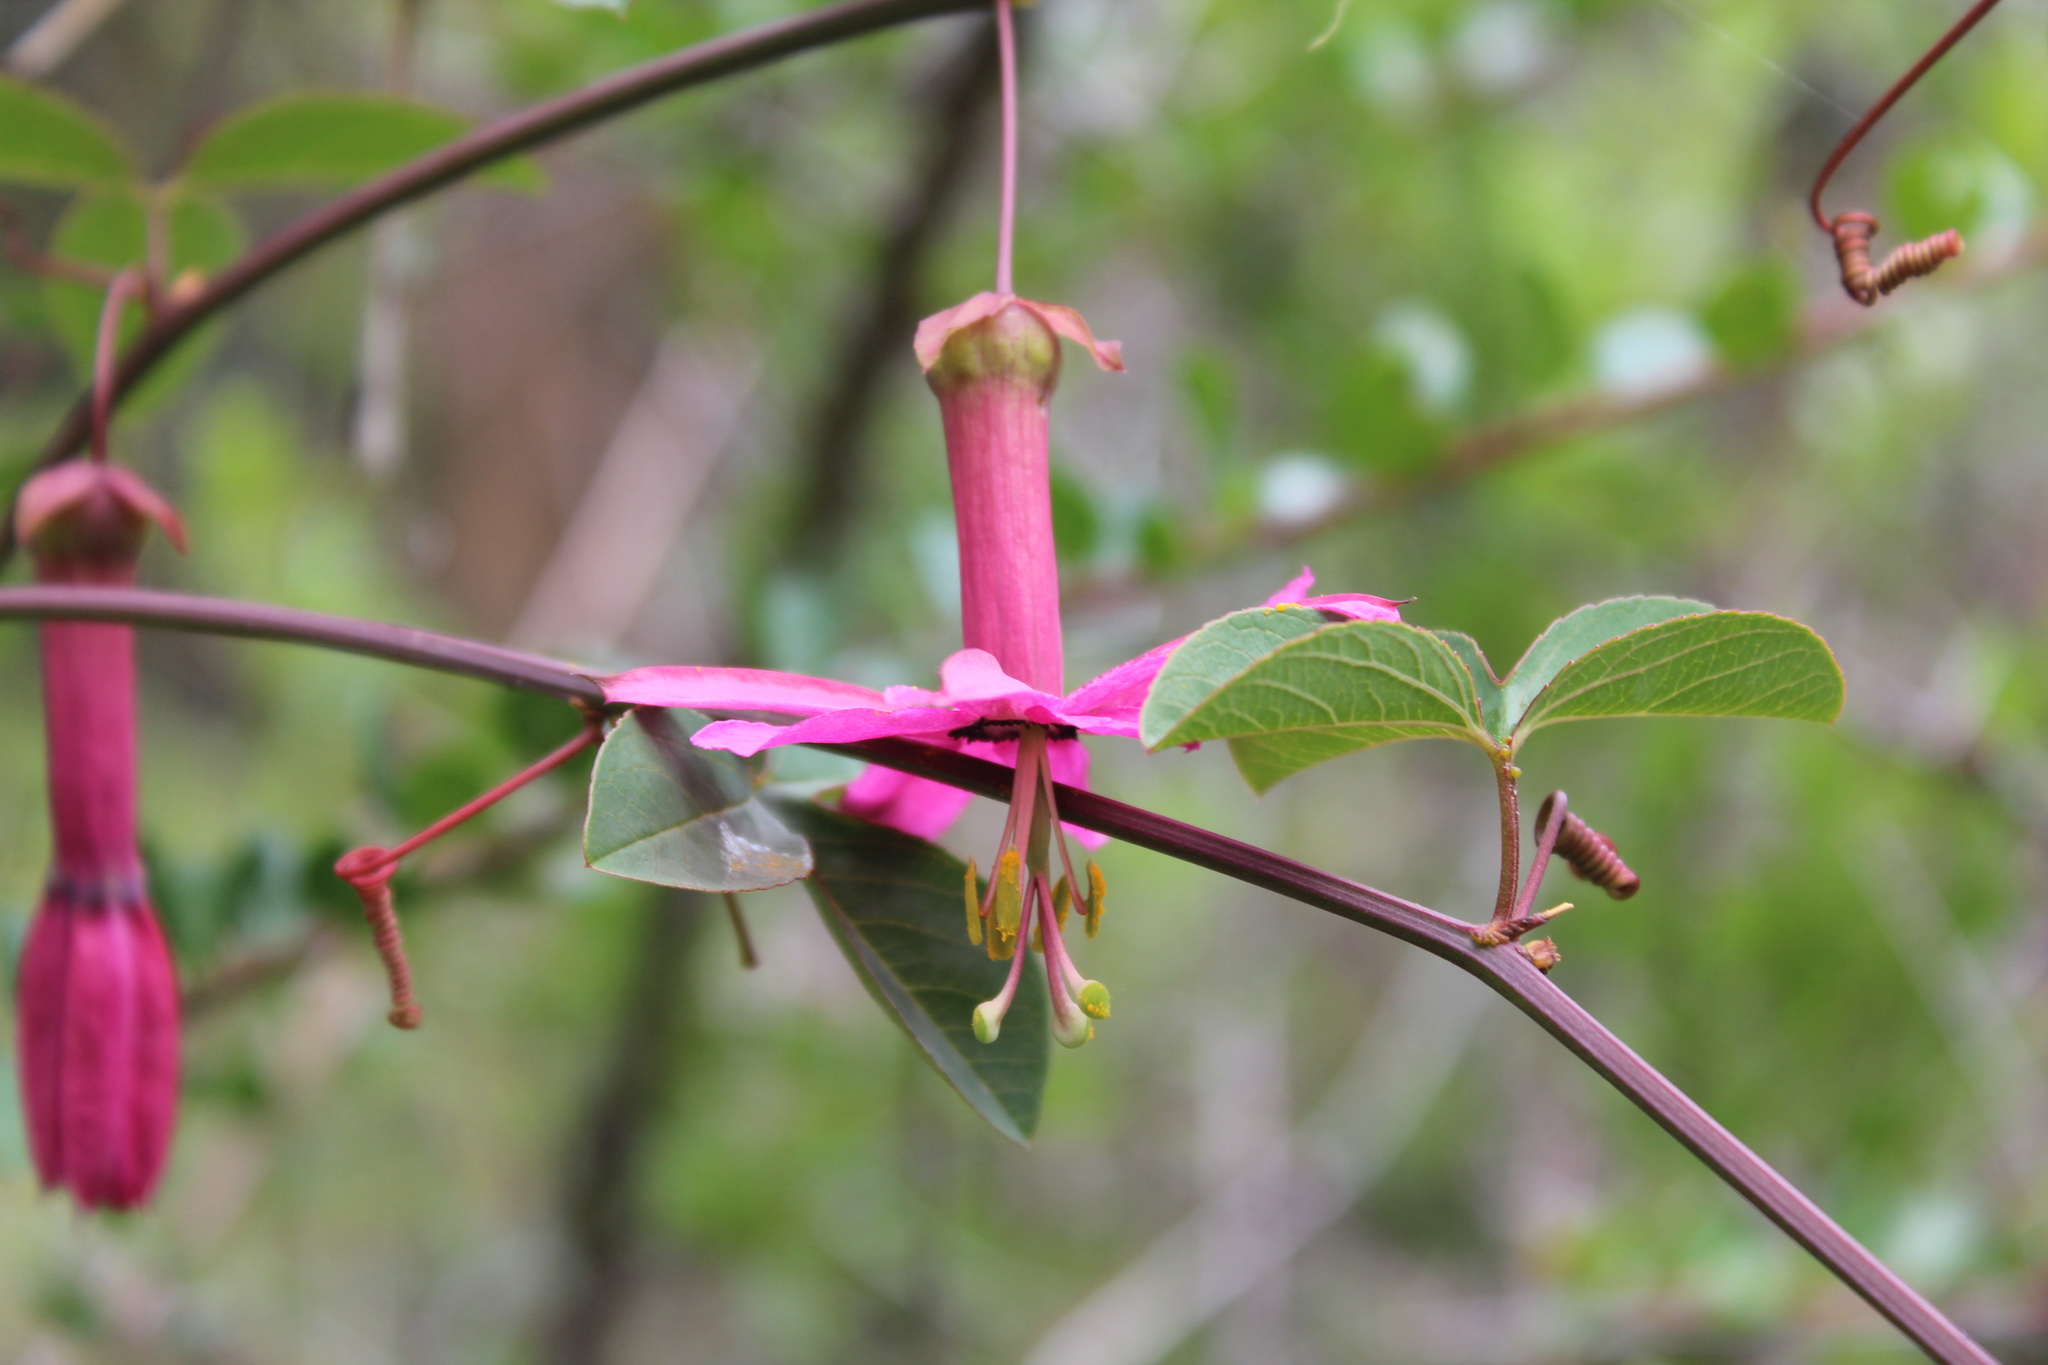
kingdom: Plantae
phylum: Tracheophyta
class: Magnoliopsida
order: Malpighiales
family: Passifloraceae
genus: Passiflora
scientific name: Passiflora gracilens
